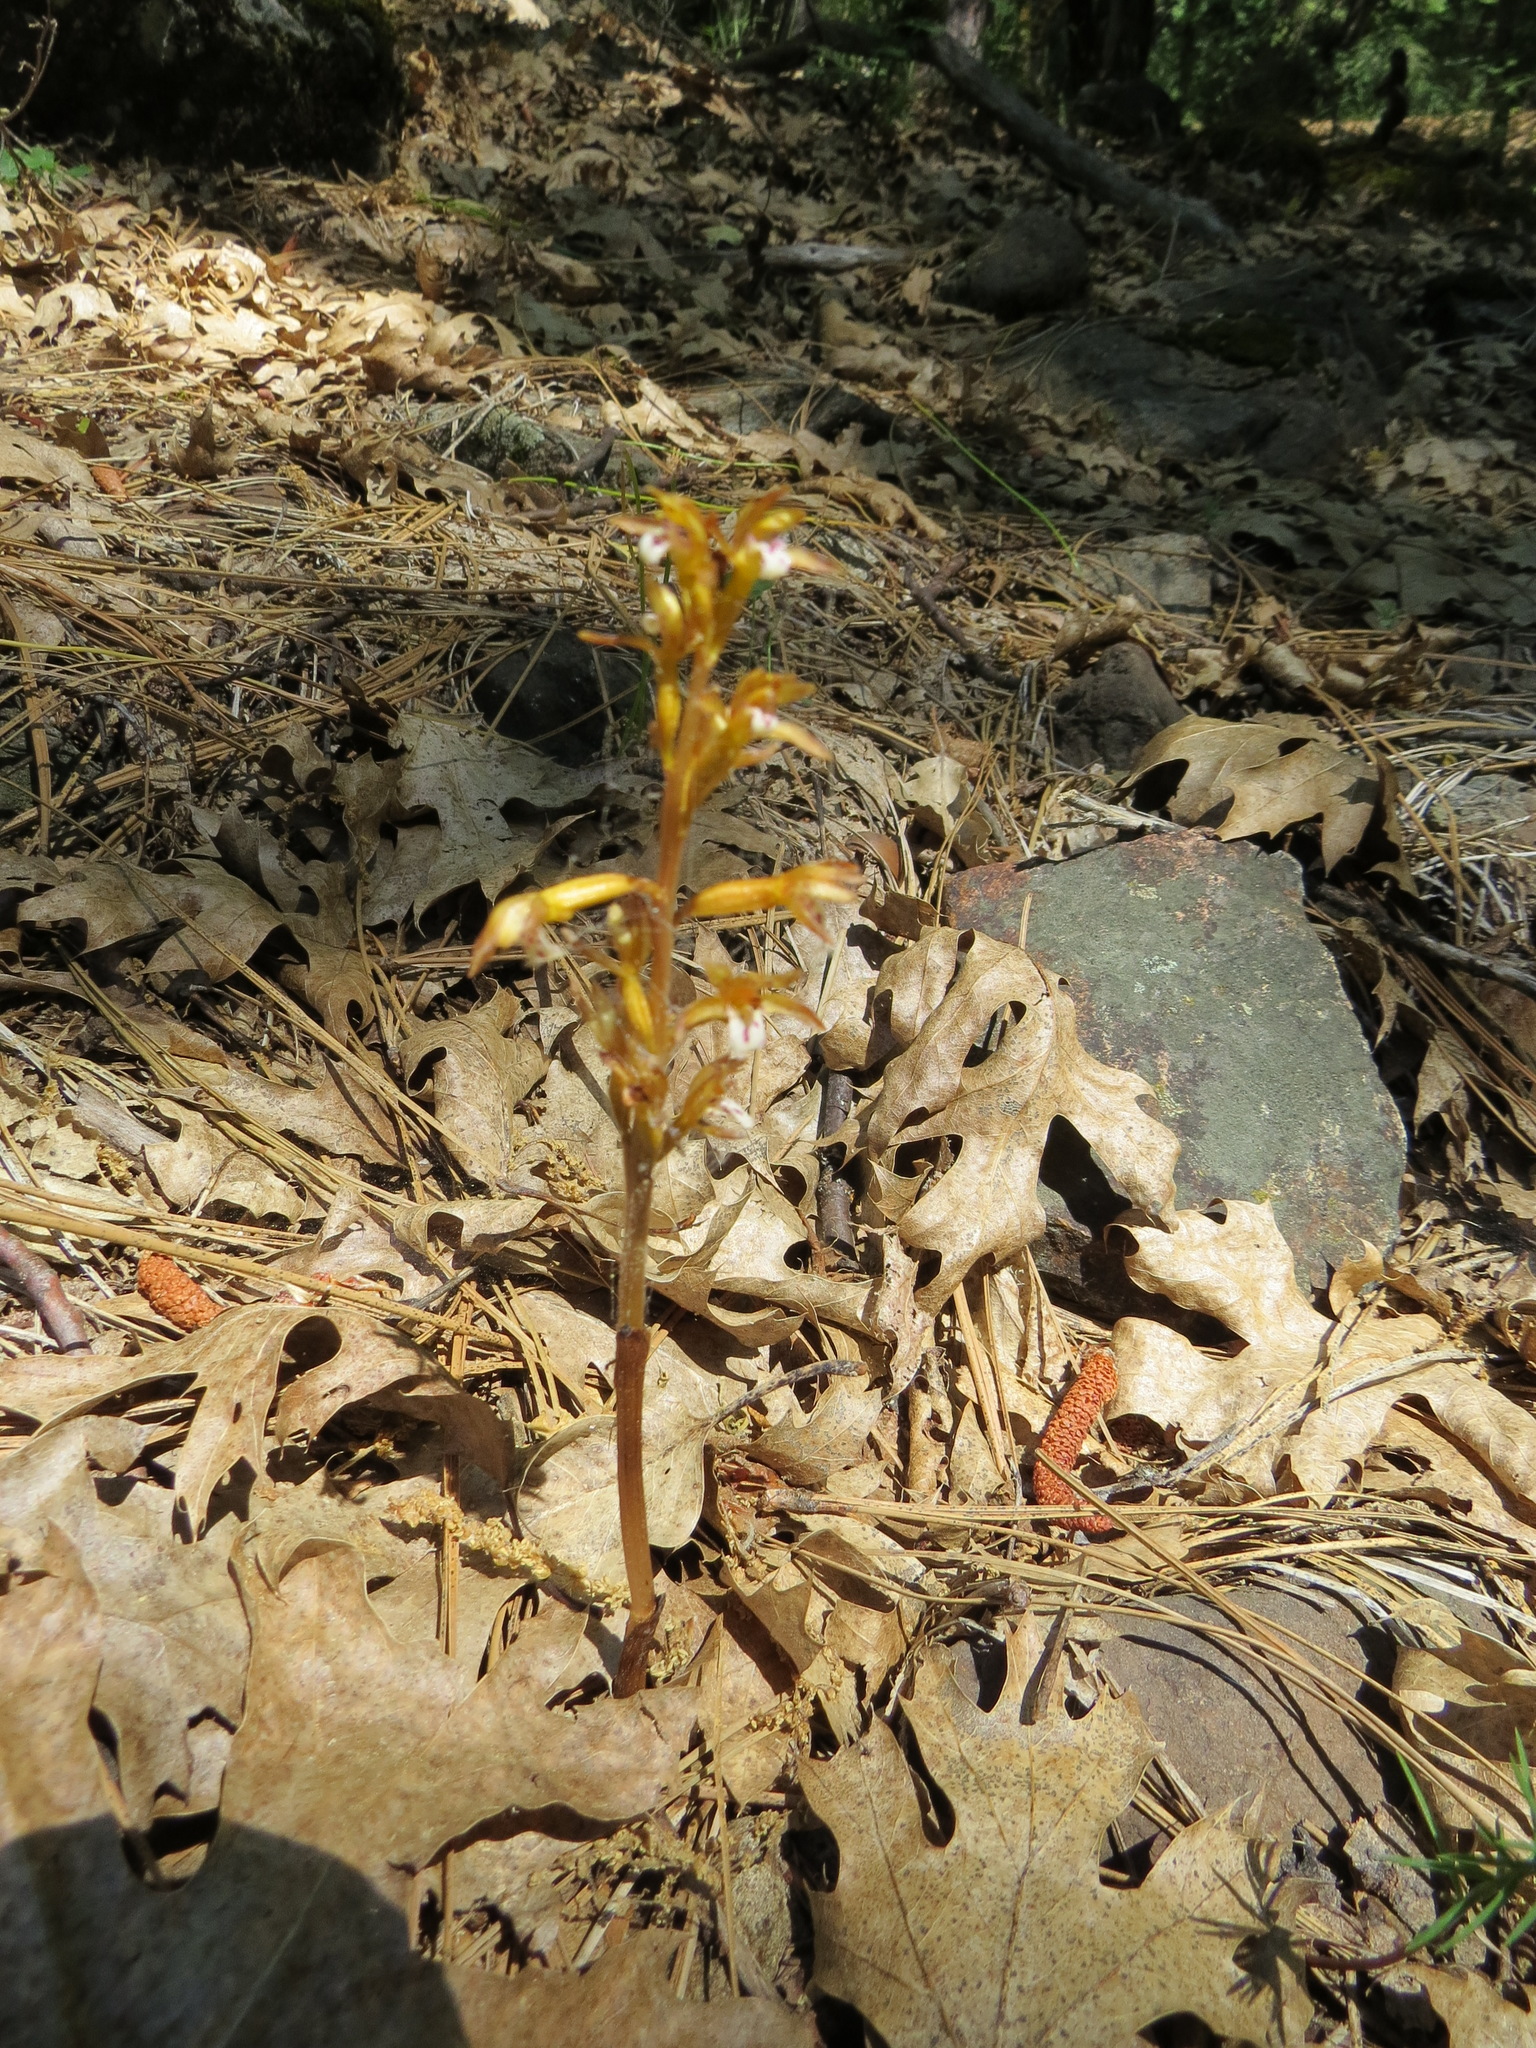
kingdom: Plantae
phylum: Tracheophyta
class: Liliopsida
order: Asparagales
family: Orchidaceae
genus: Corallorhiza
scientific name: Corallorhiza maculata
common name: Spotted coralroot
